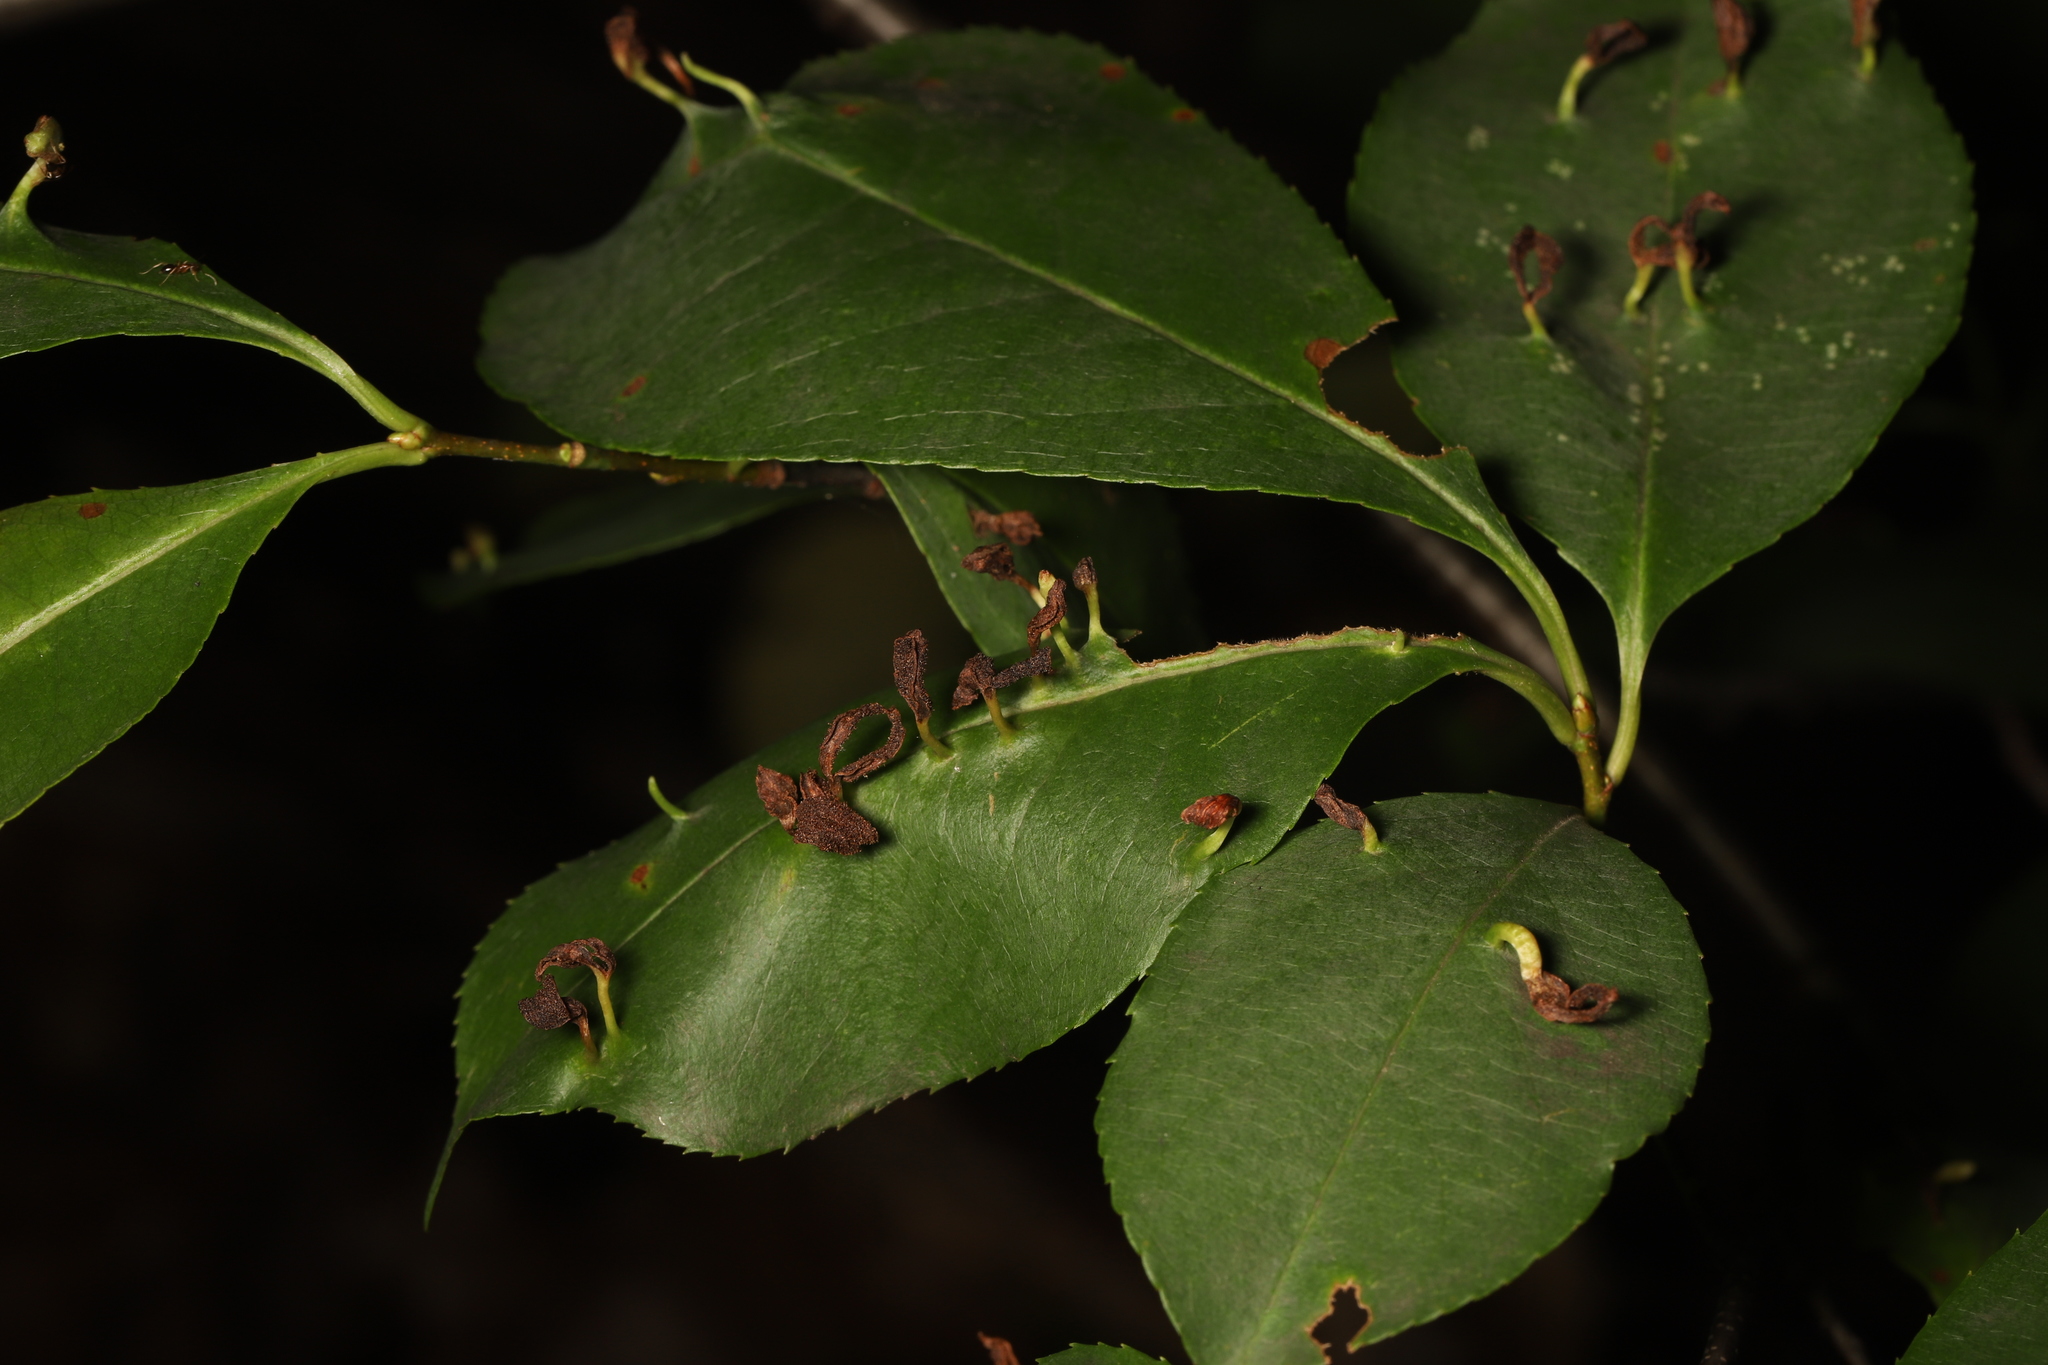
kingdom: Animalia
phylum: Arthropoda
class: Arachnida
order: Trombidiformes
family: Eriophyidae
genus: Eriophyes
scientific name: Eriophyes
